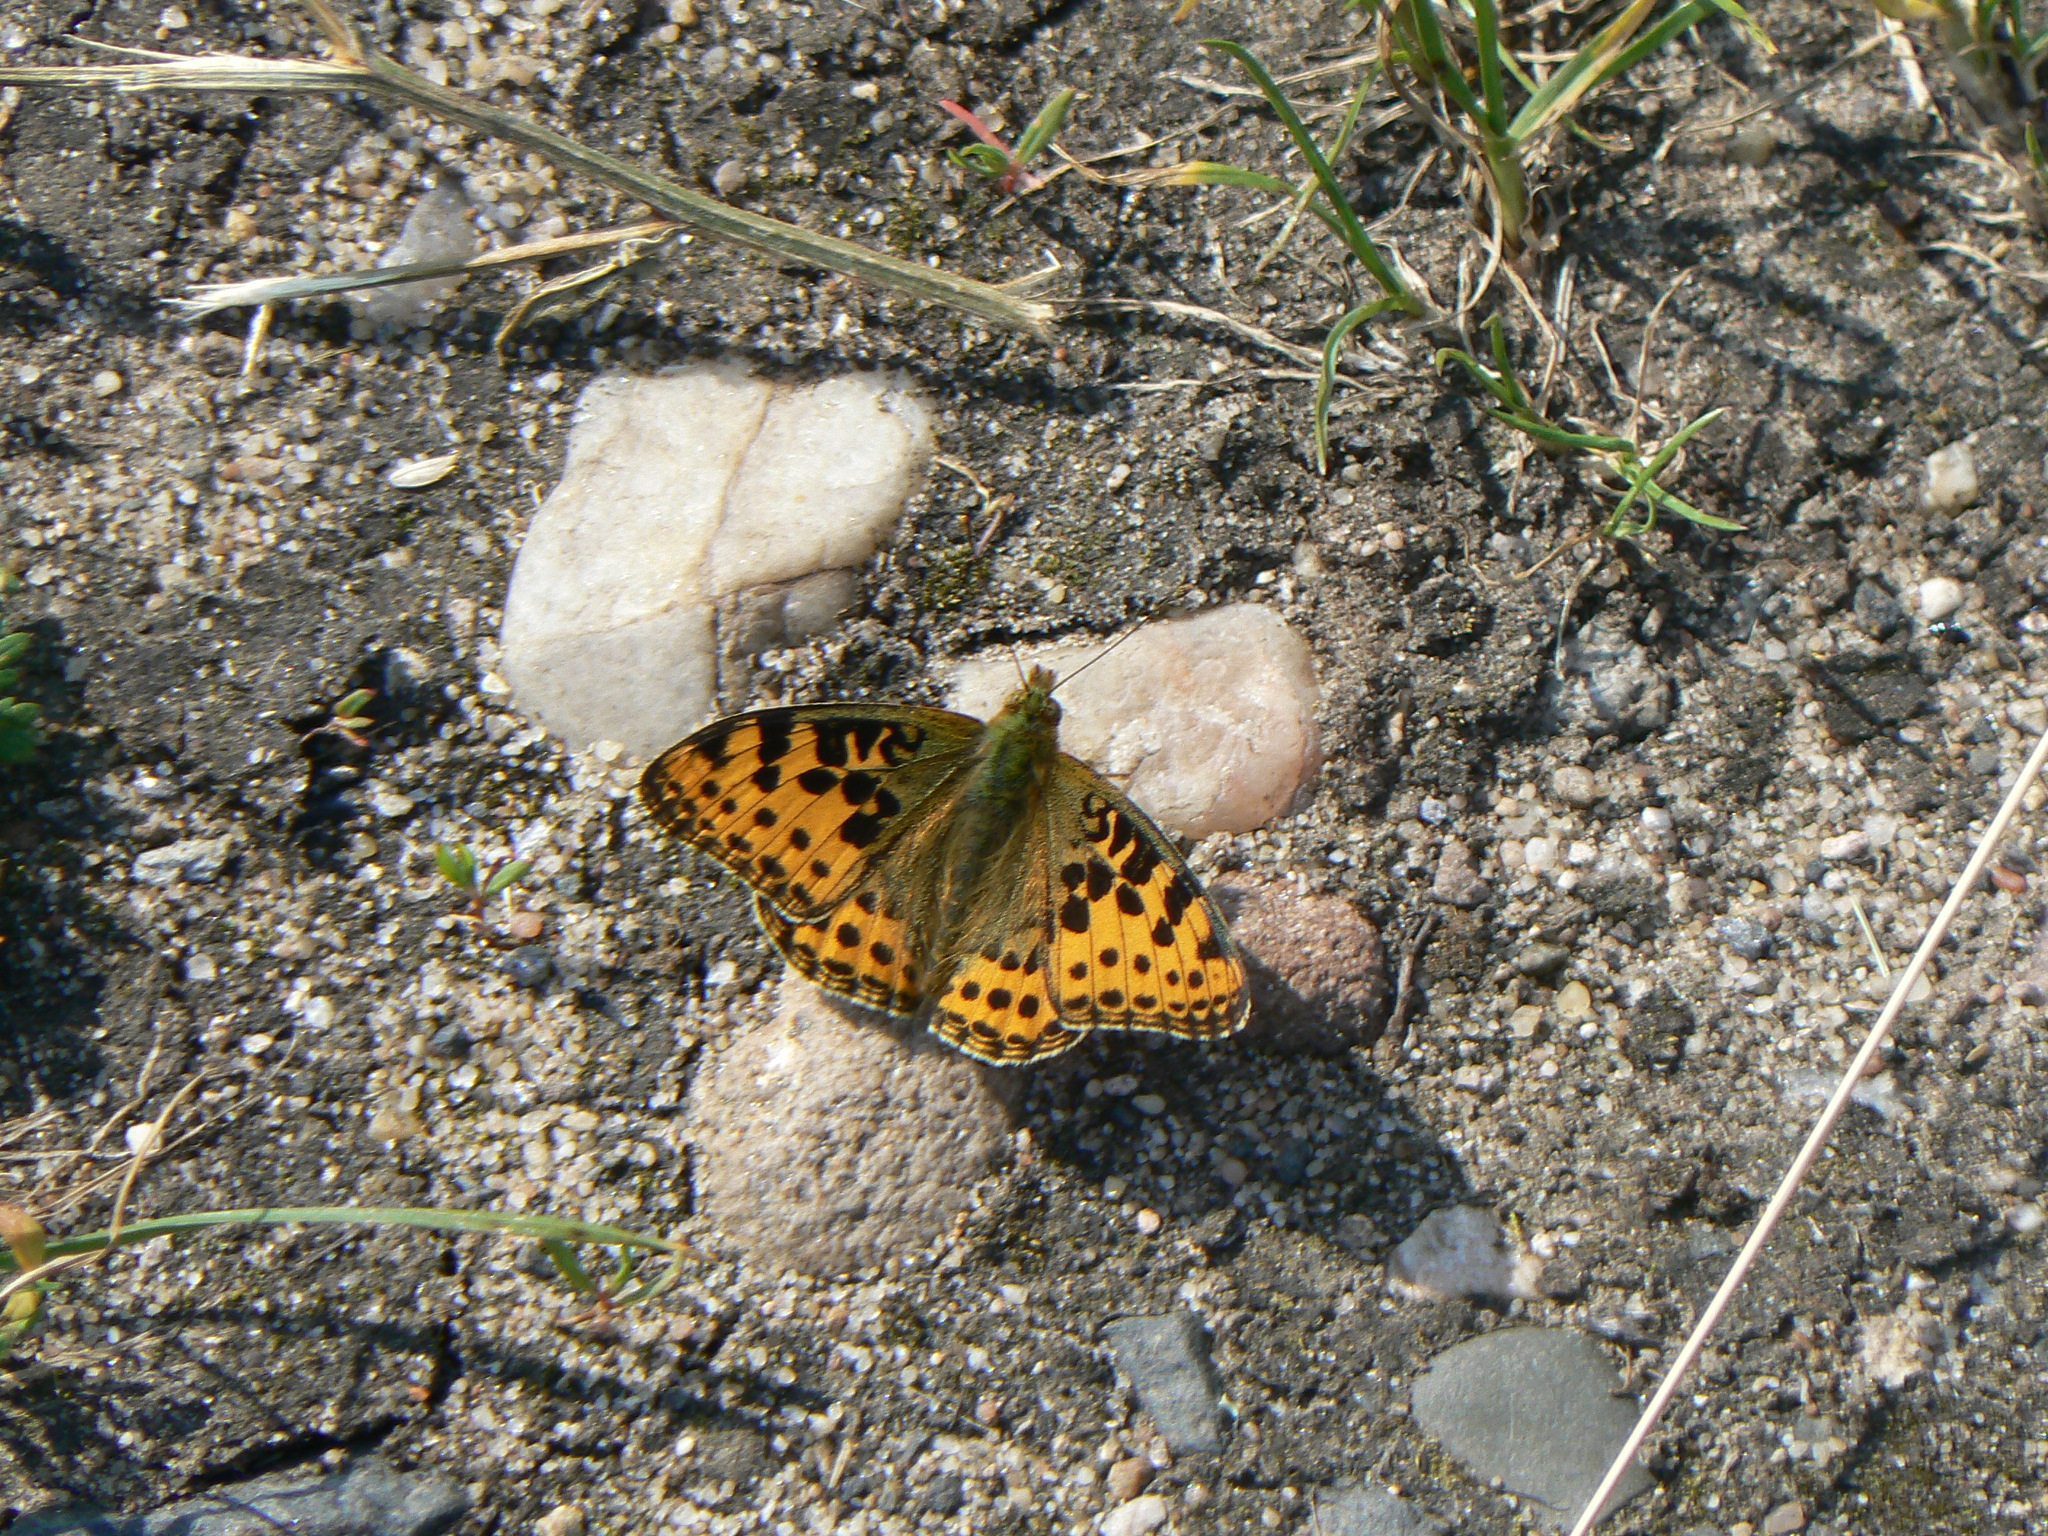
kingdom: Animalia
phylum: Arthropoda
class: Insecta
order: Lepidoptera
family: Nymphalidae
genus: Issoria
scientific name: Issoria lathonia
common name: Queen of spain fritillary
